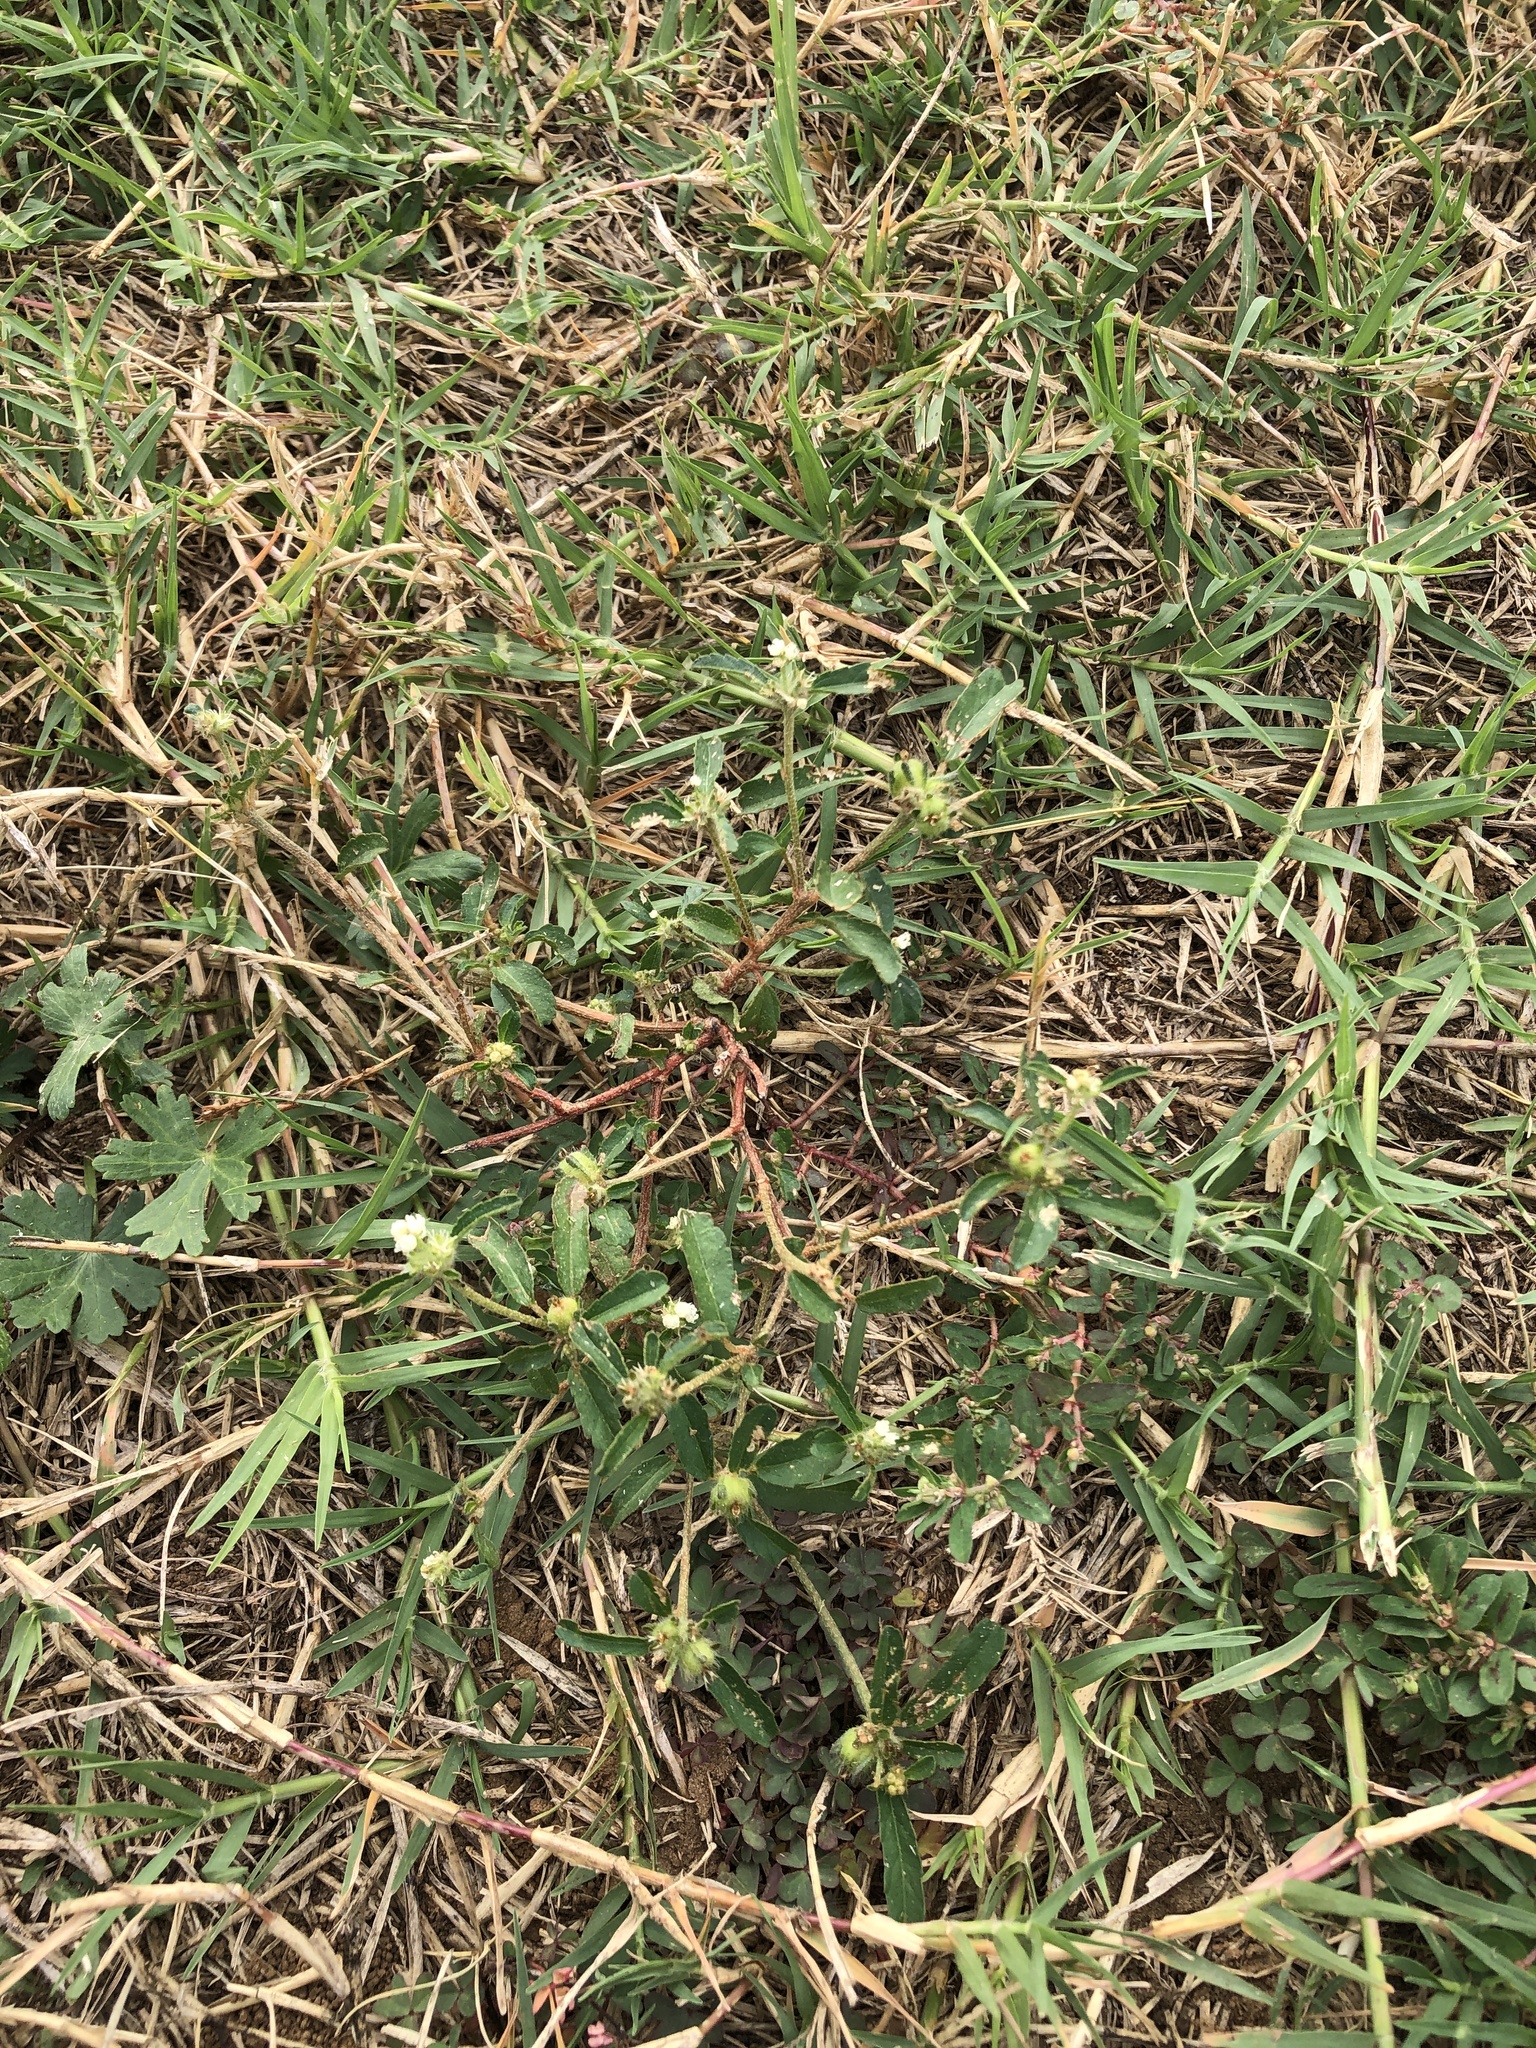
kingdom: Plantae
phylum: Tracheophyta
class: Magnoliopsida
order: Malpighiales
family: Euphorbiaceae
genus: Croton
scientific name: Croton glandulosus
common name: Tropic croton
